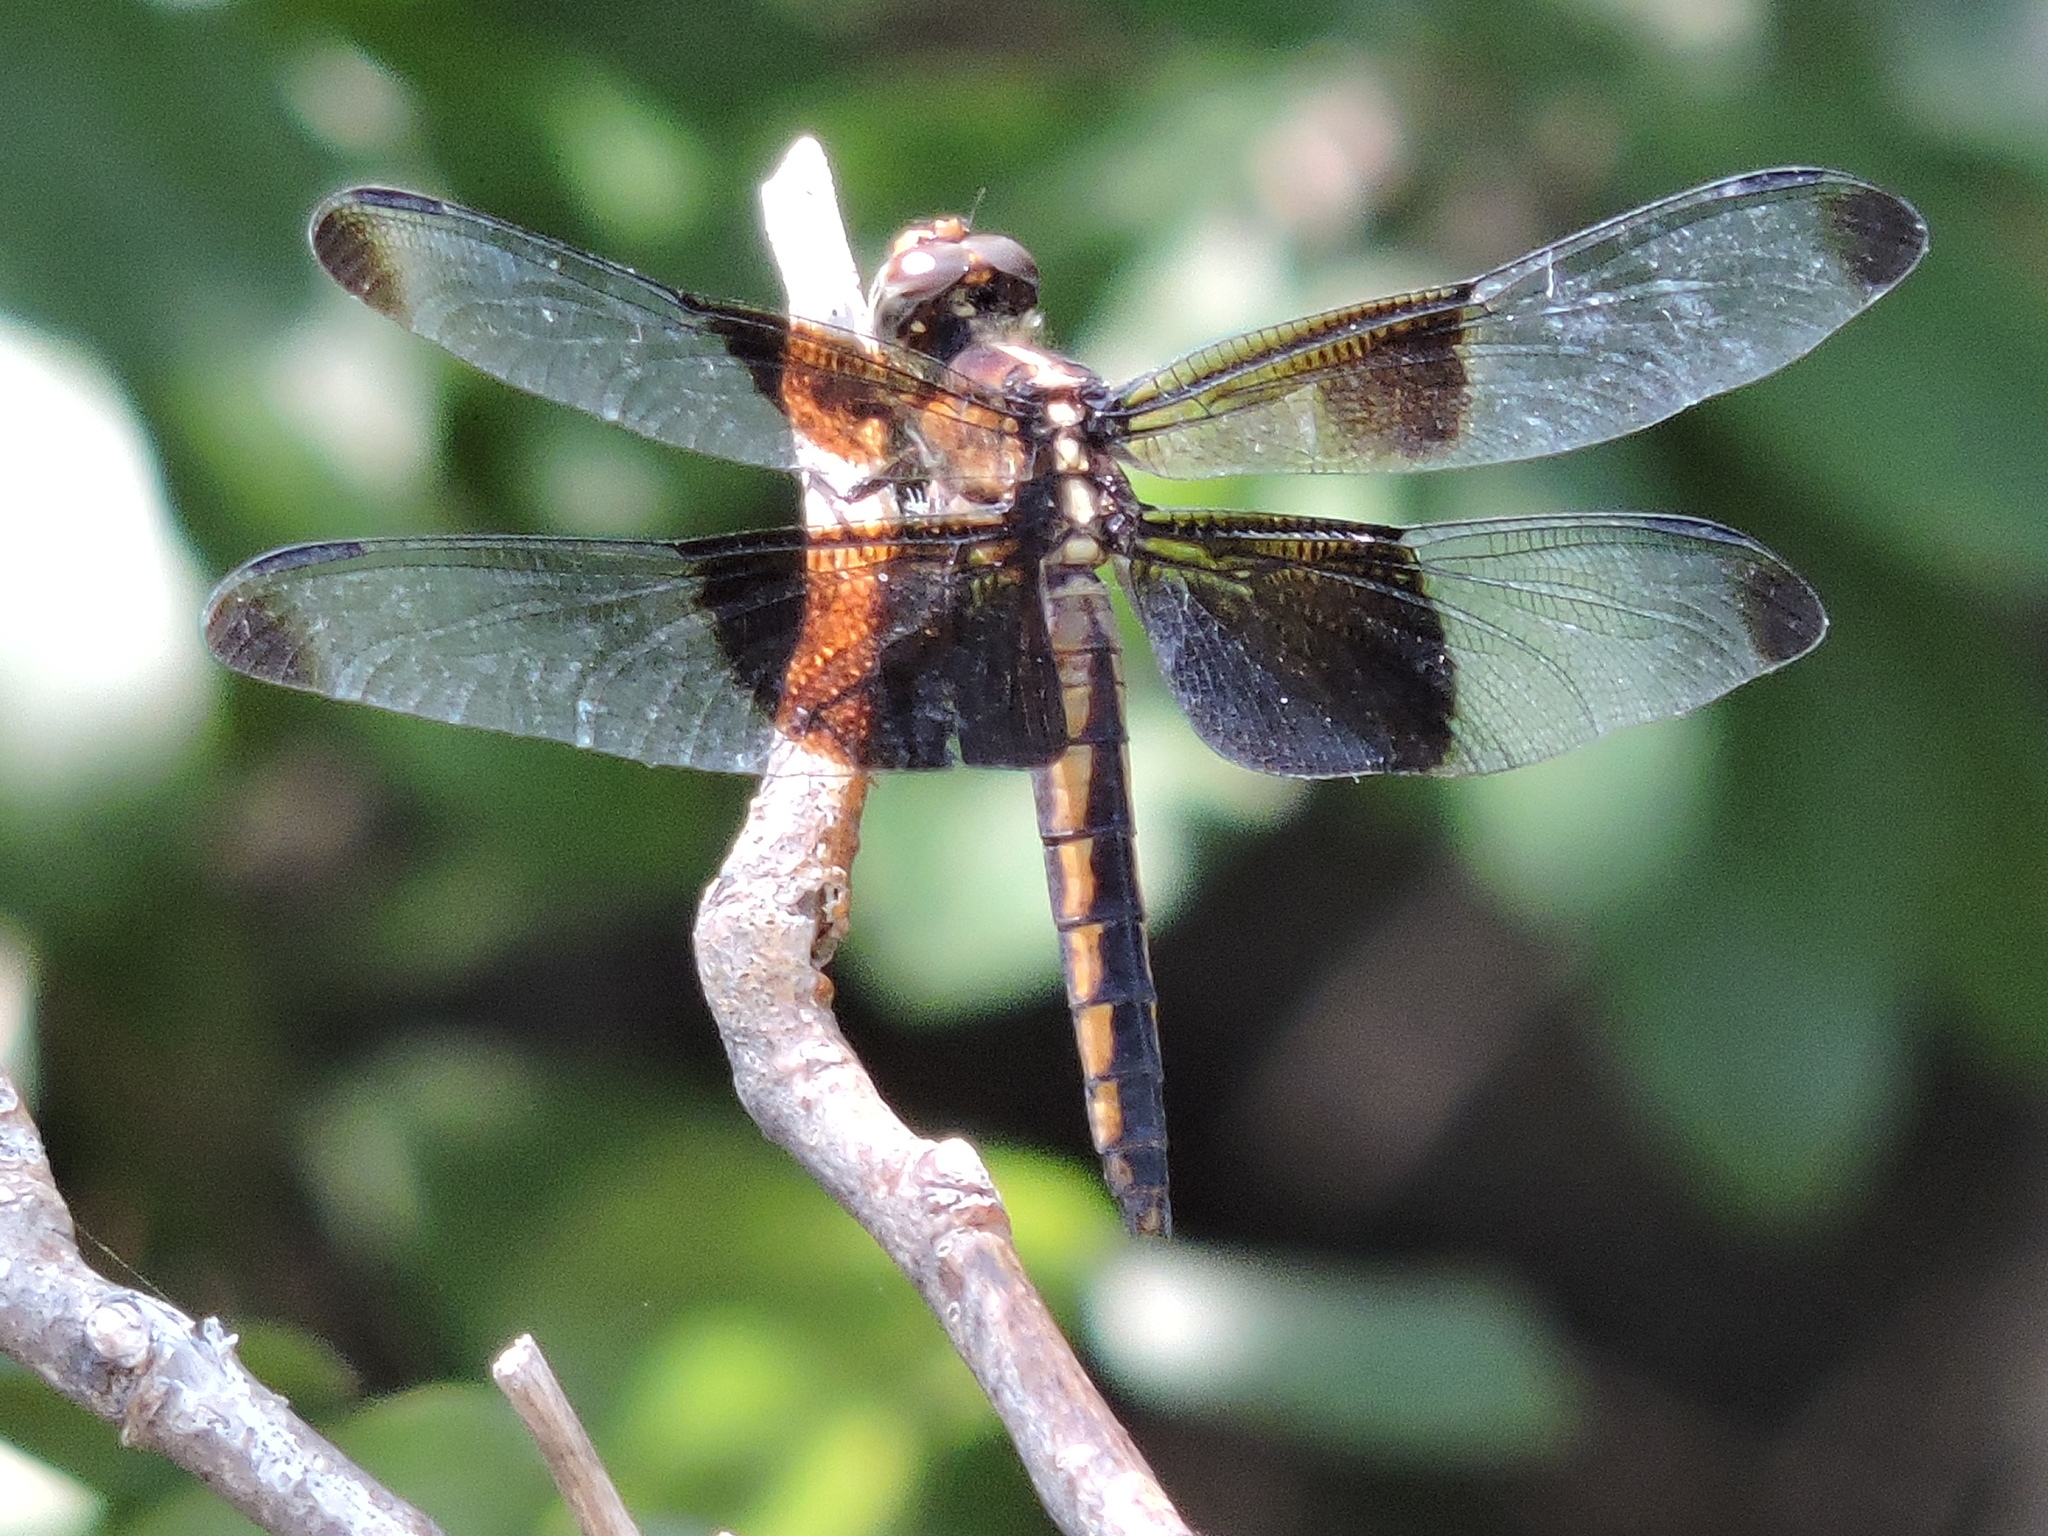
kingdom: Animalia
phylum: Arthropoda
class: Insecta
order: Odonata
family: Libellulidae
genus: Libellula
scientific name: Libellula luctuosa
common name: Widow skimmer
